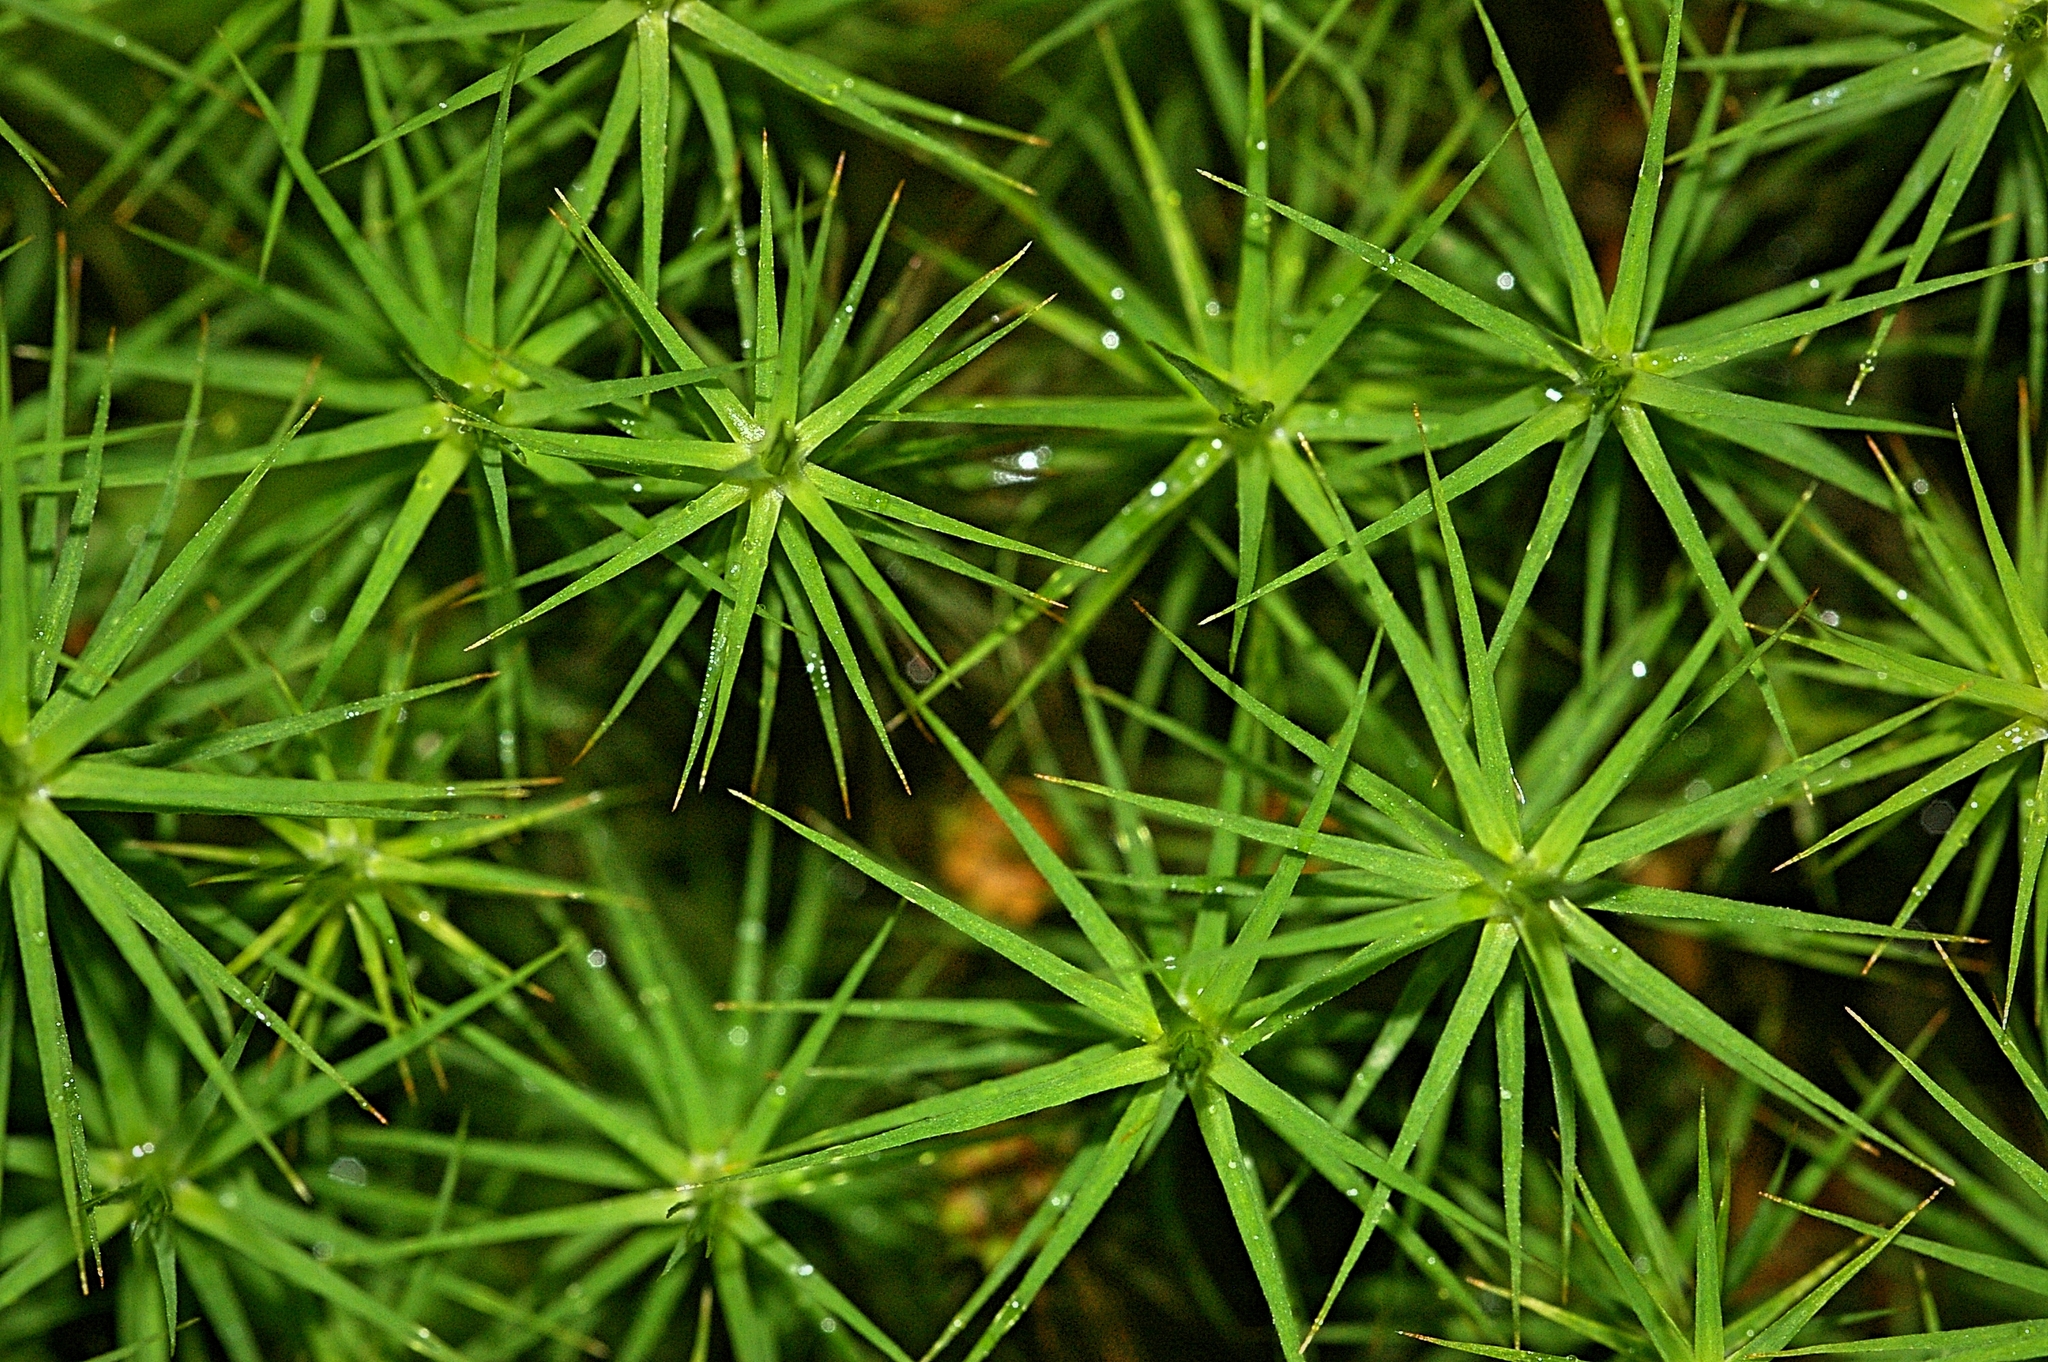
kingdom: Plantae
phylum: Bryophyta
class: Polytrichopsida
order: Polytrichales
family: Polytrichaceae
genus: Polytrichum
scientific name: Polytrichum commune
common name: Common haircap
